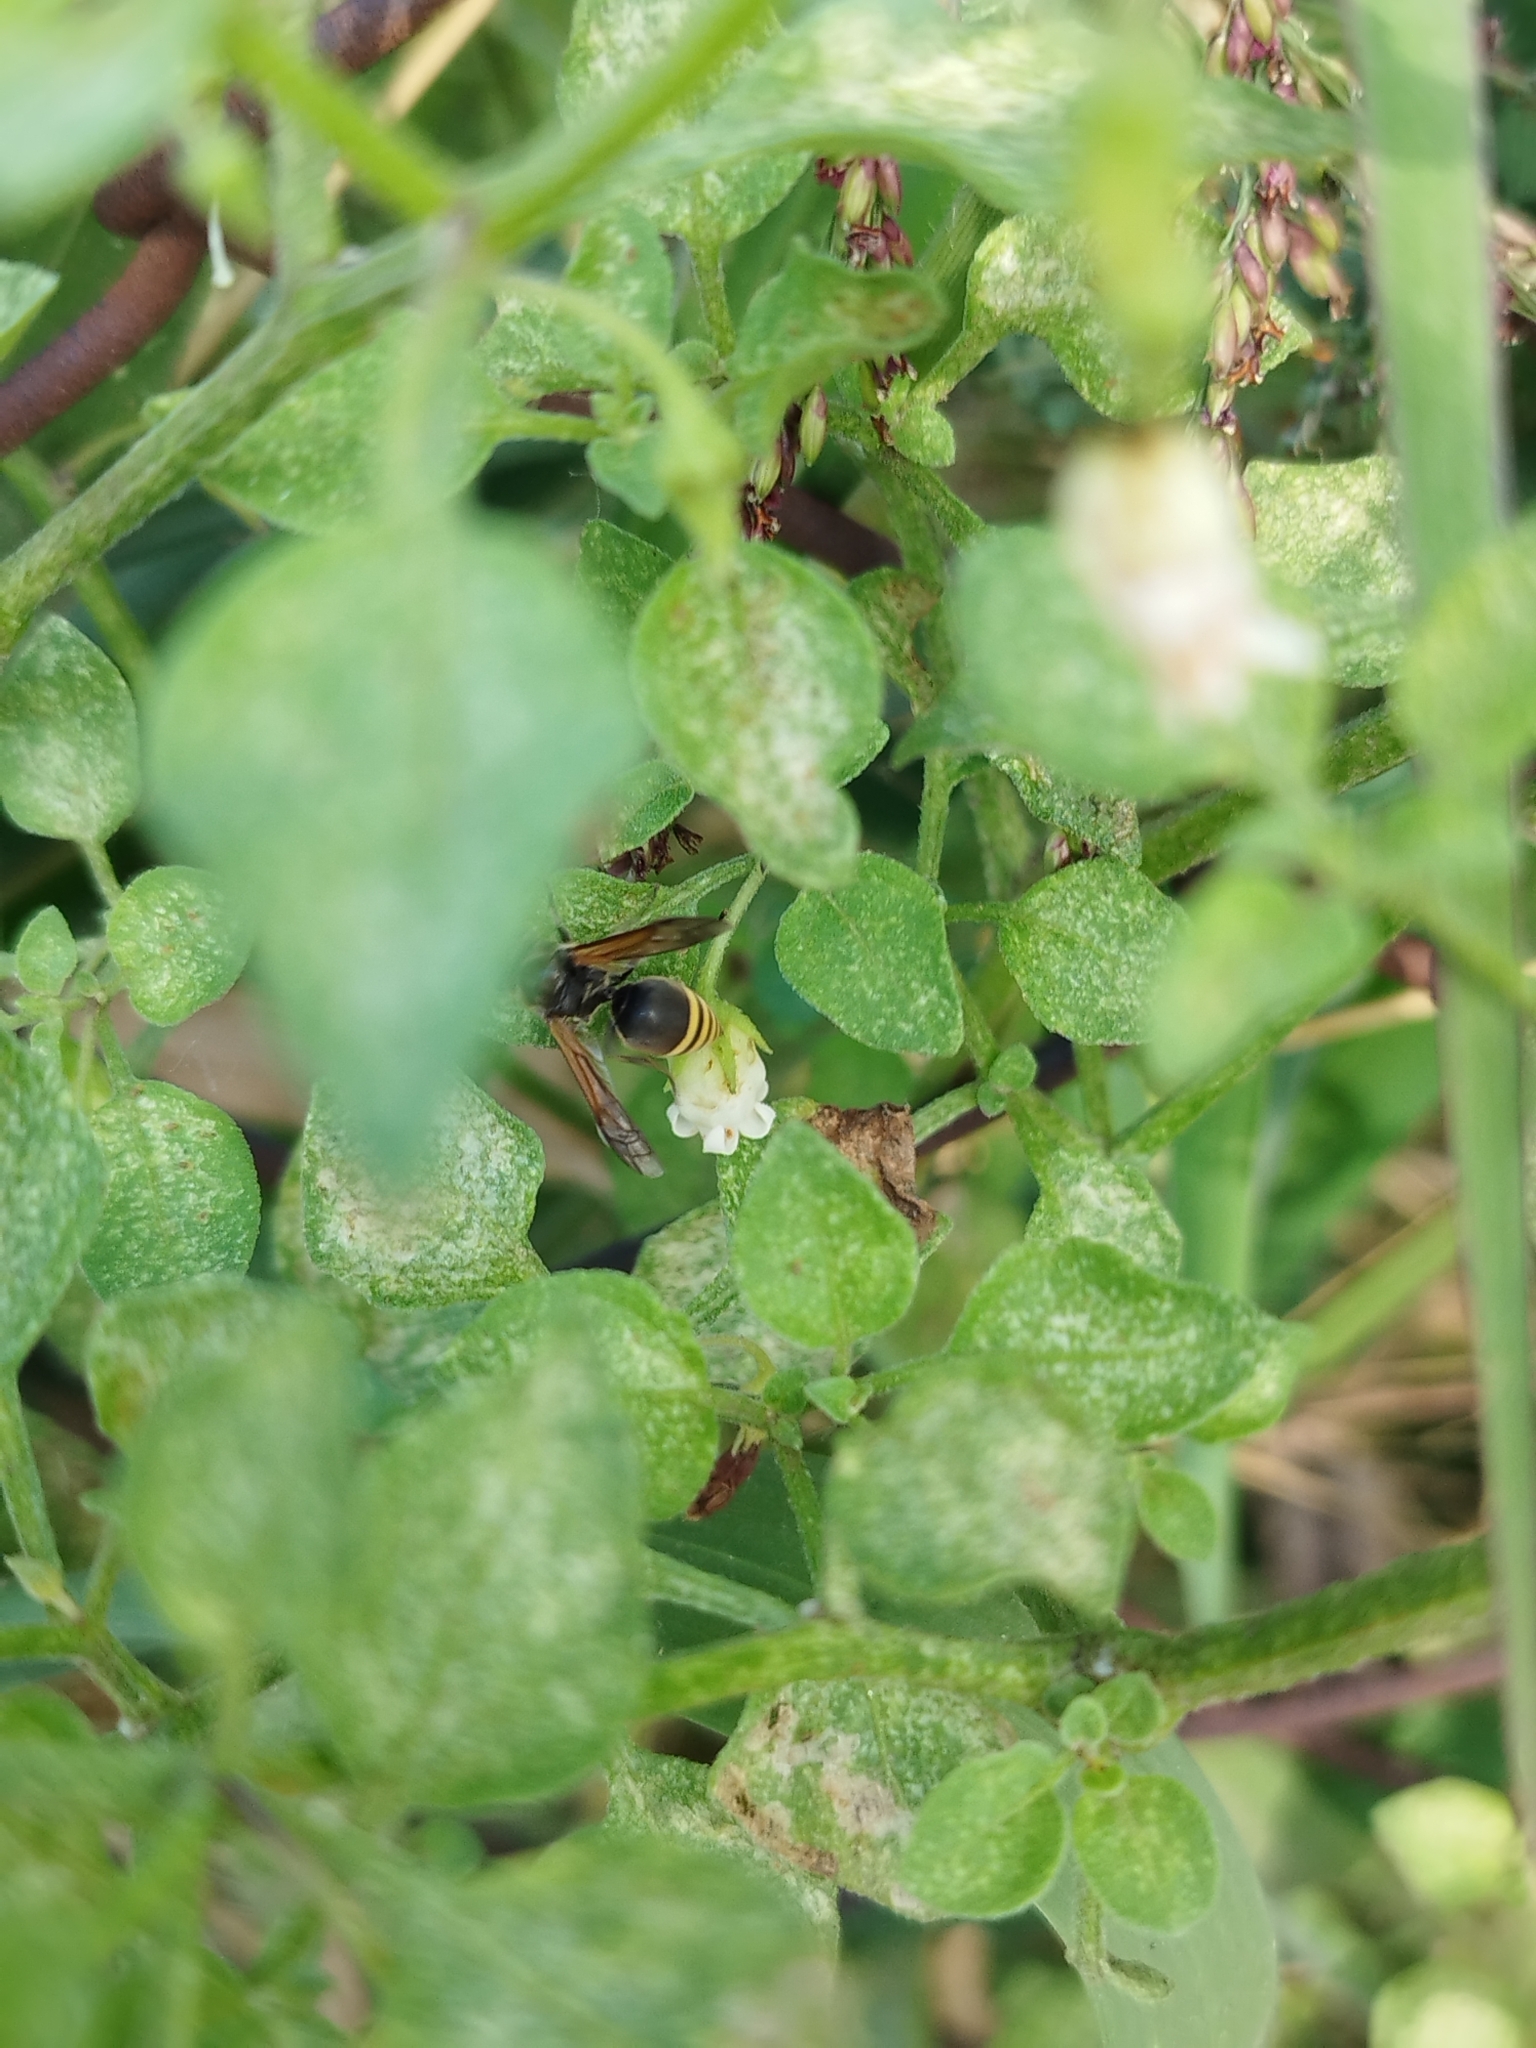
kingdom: Animalia
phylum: Arthropoda
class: Insecta
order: Hymenoptera
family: Vespidae
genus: Brachygastra
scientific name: Brachygastra lecheguana
